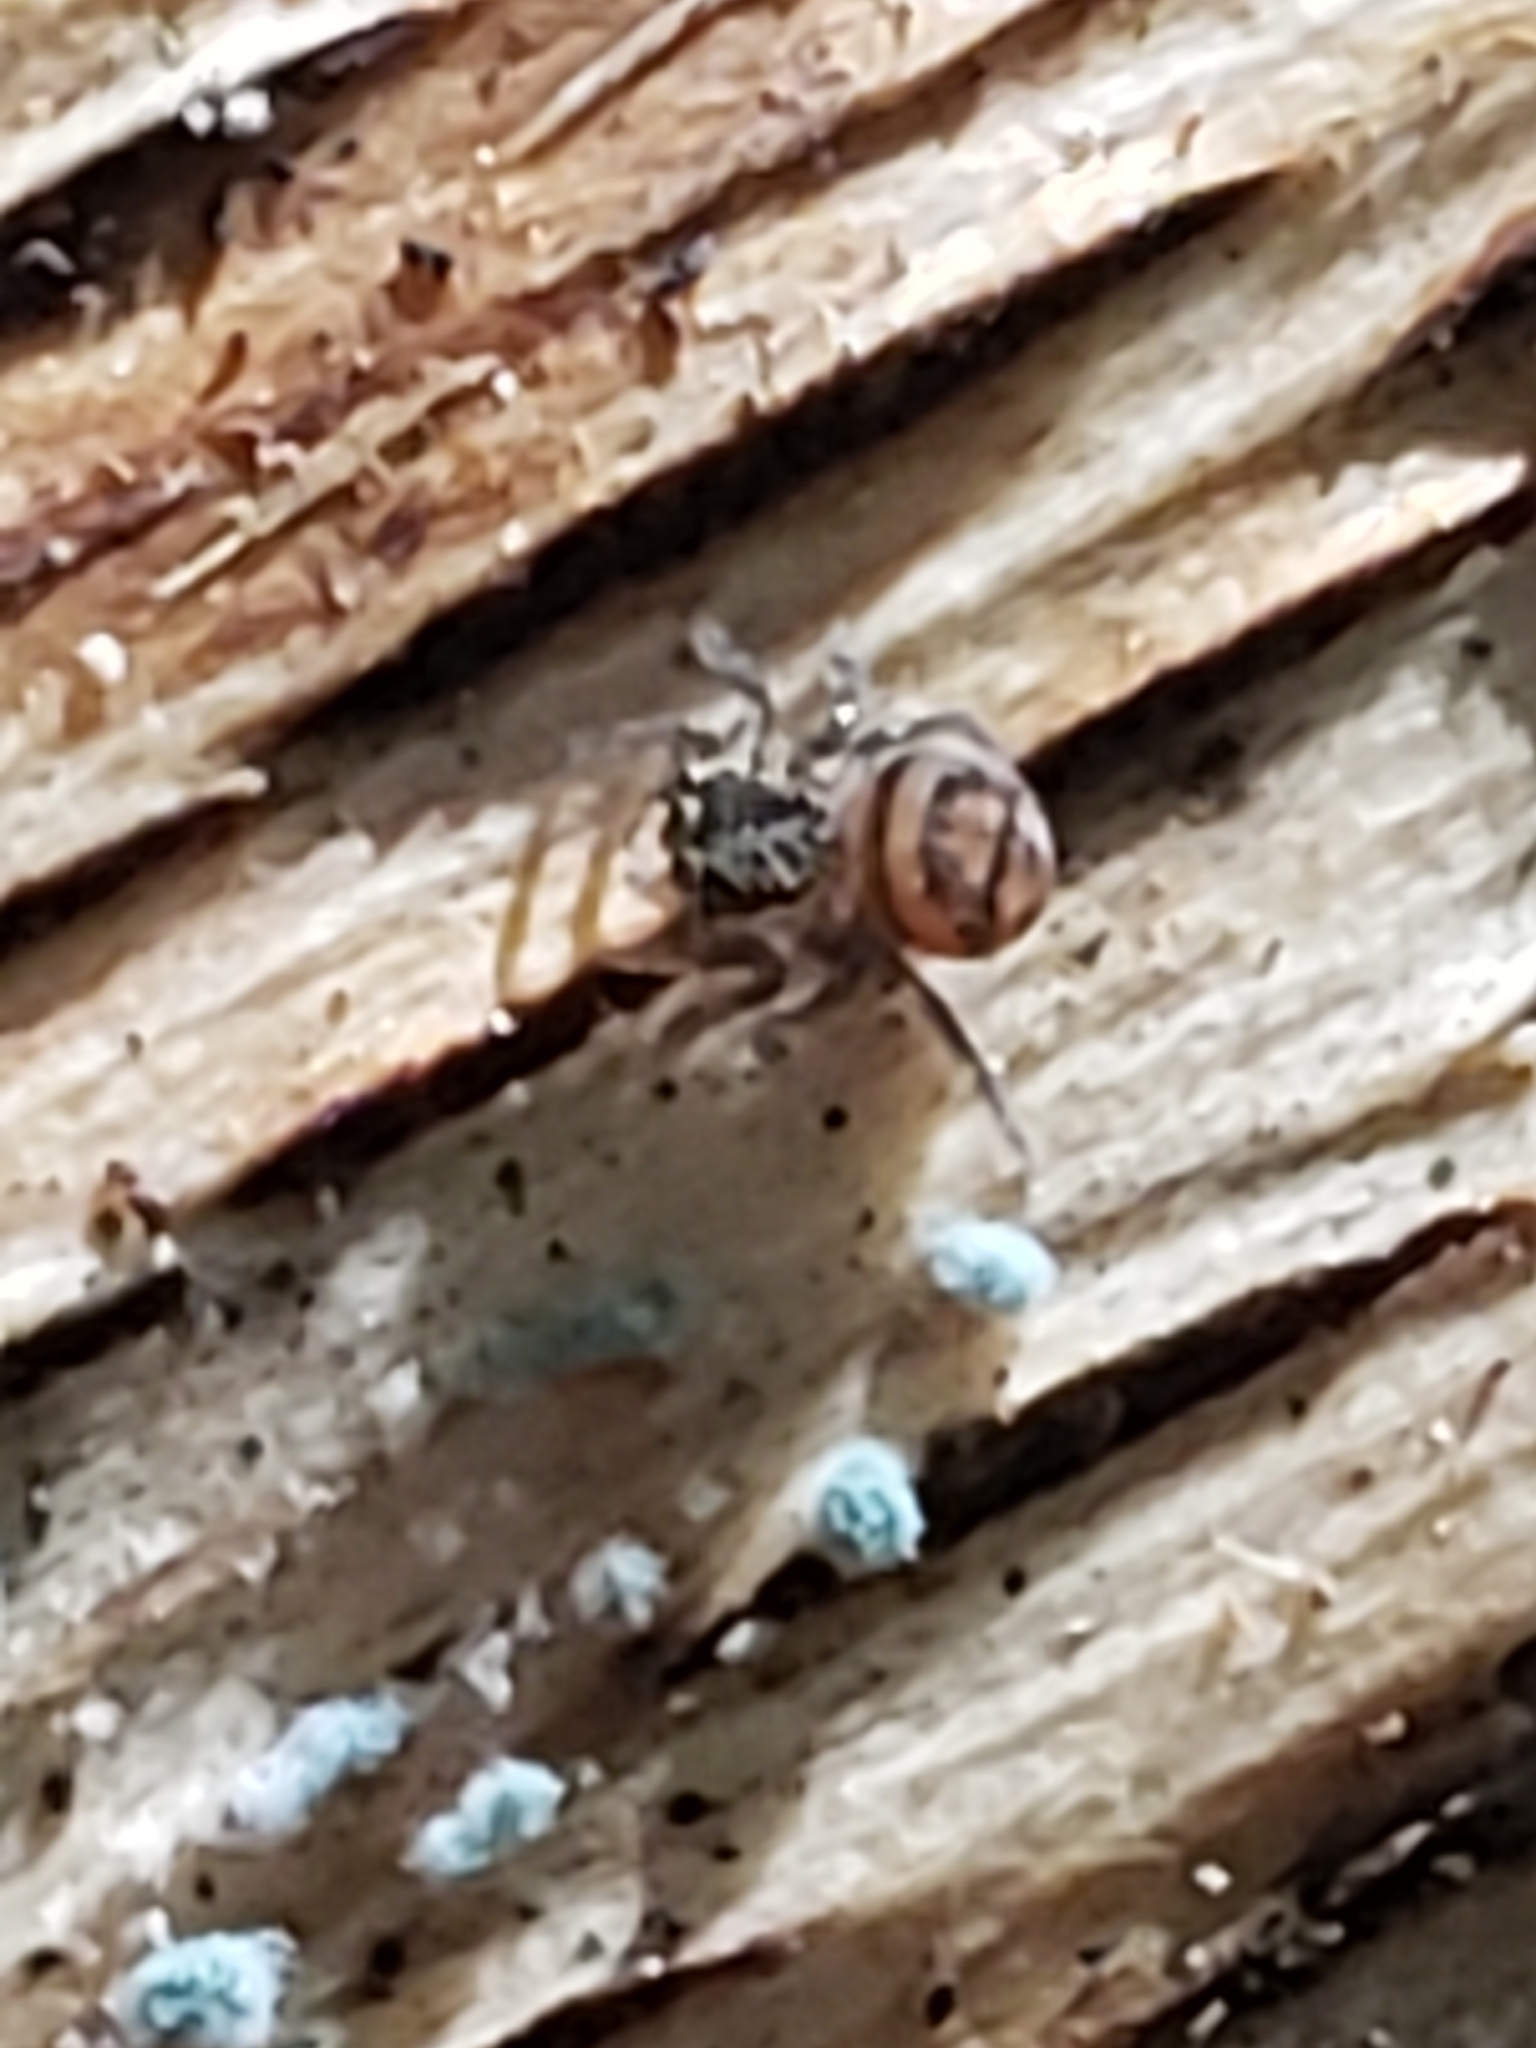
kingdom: Animalia
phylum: Arthropoda
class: Arachnida
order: Araneae
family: Salticidae
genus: Chinattus
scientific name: Chinattus parvulus
